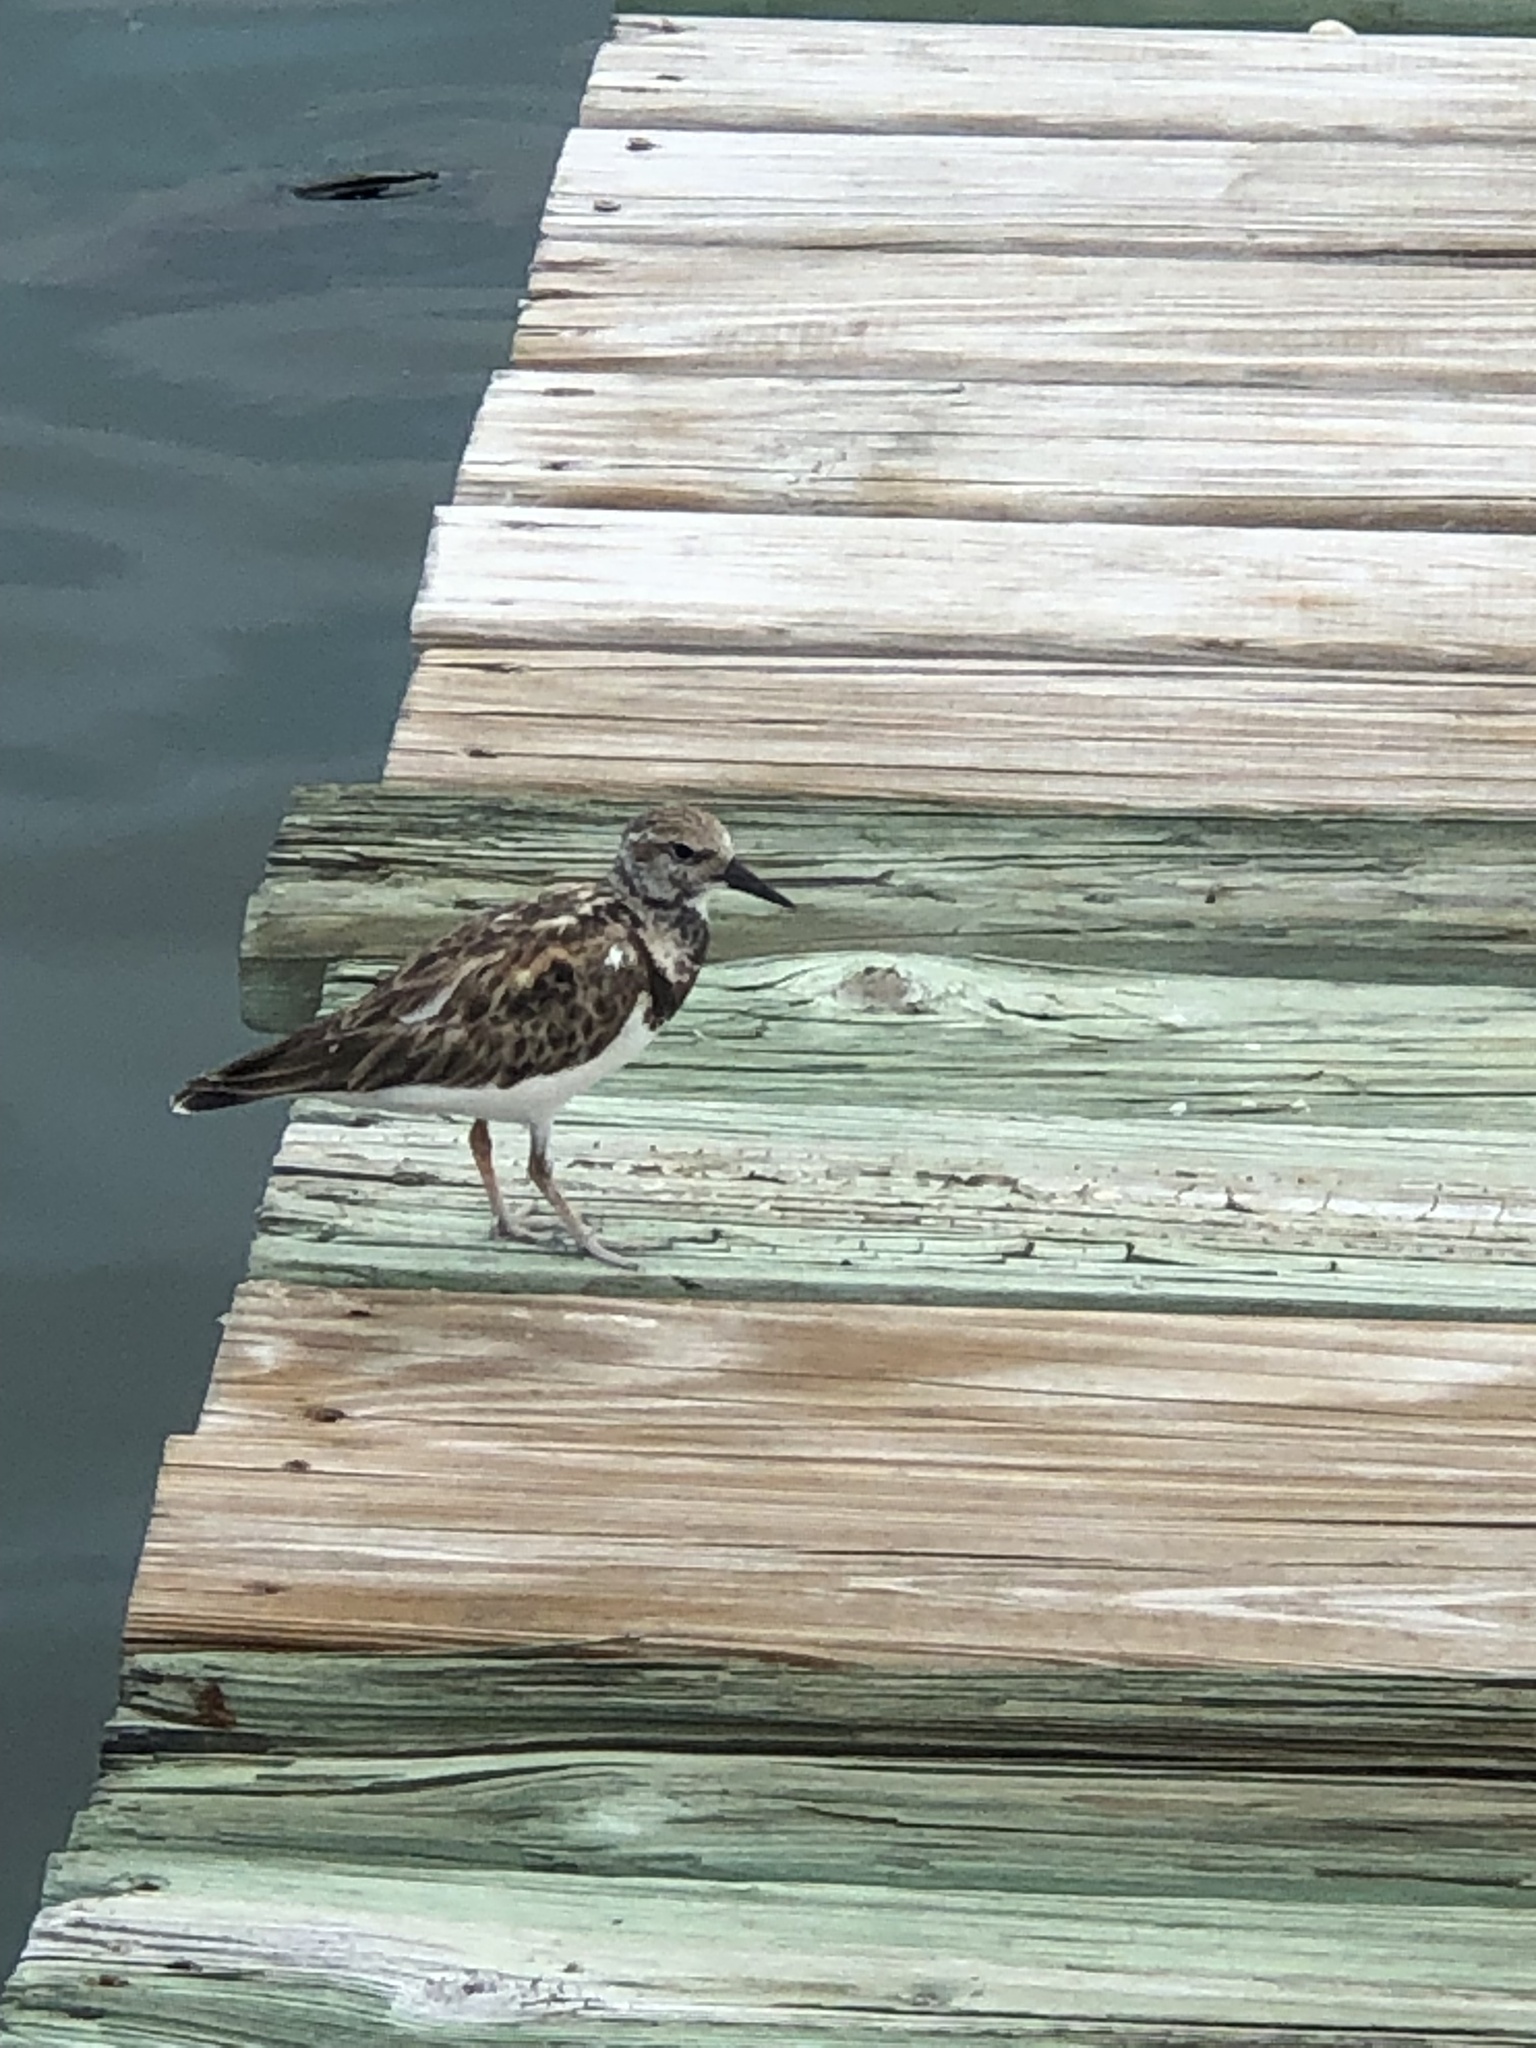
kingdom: Animalia
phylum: Chordata
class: Aves
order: Charadriiformes
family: Scolopacidae
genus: Arenaria
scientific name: Arenaria interpres
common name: Ruddy turnstone
